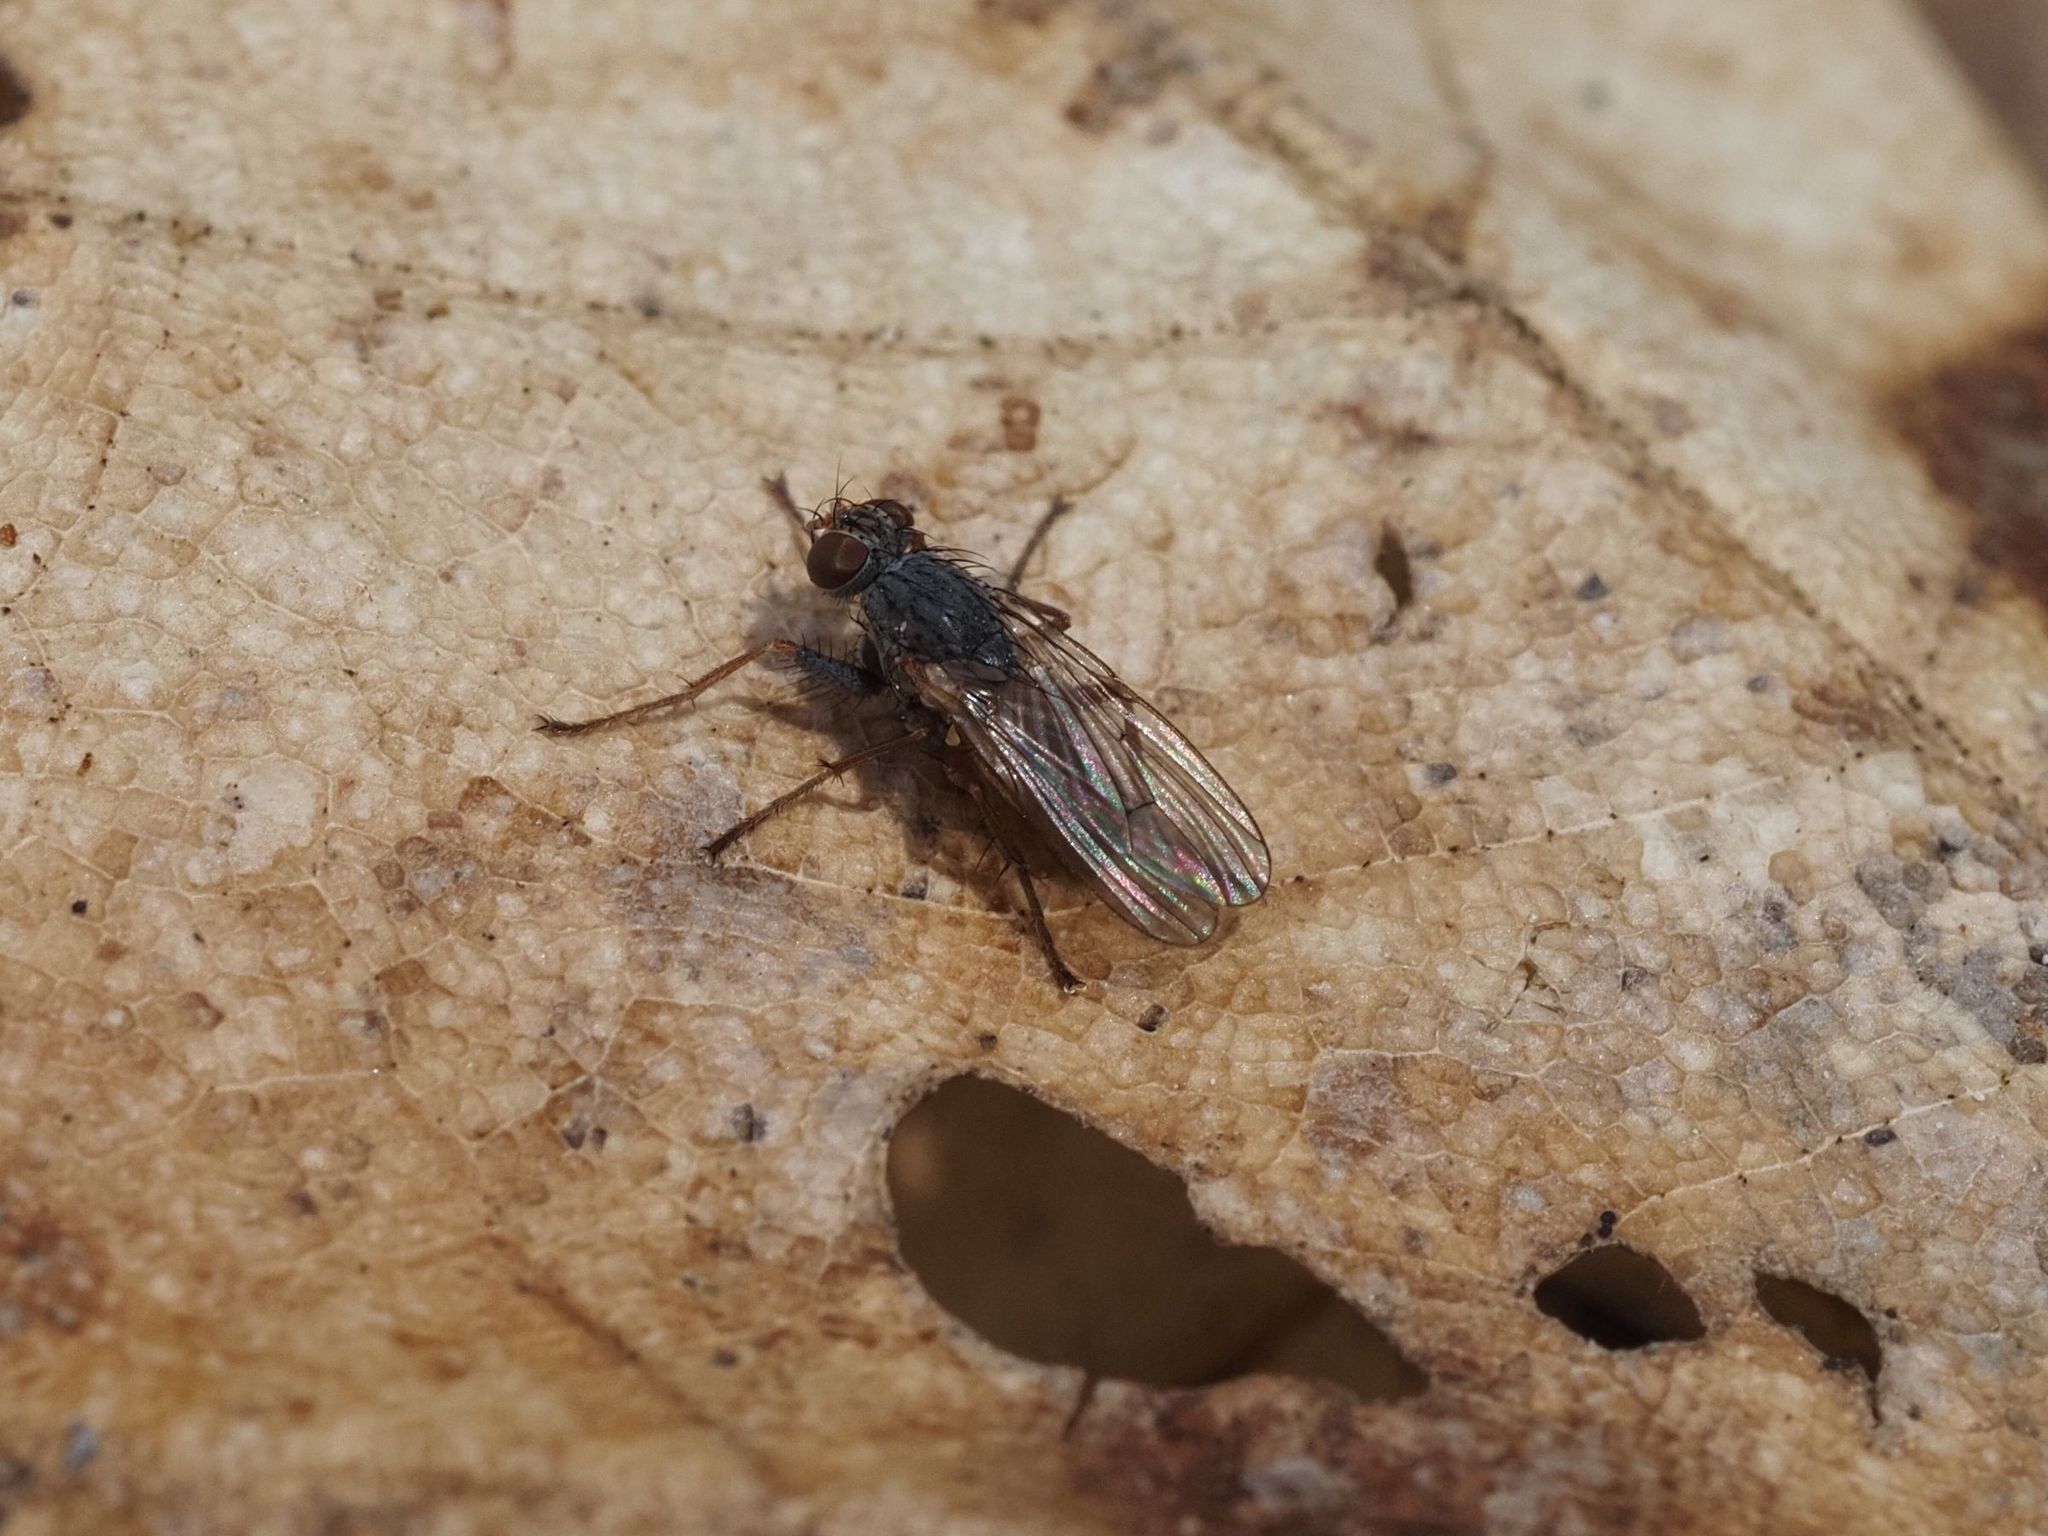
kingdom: Animalia
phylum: Arthropoda
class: Insecta
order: Diptera
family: Muscidae
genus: Lispocephala
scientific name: Lispocephala brachialis
